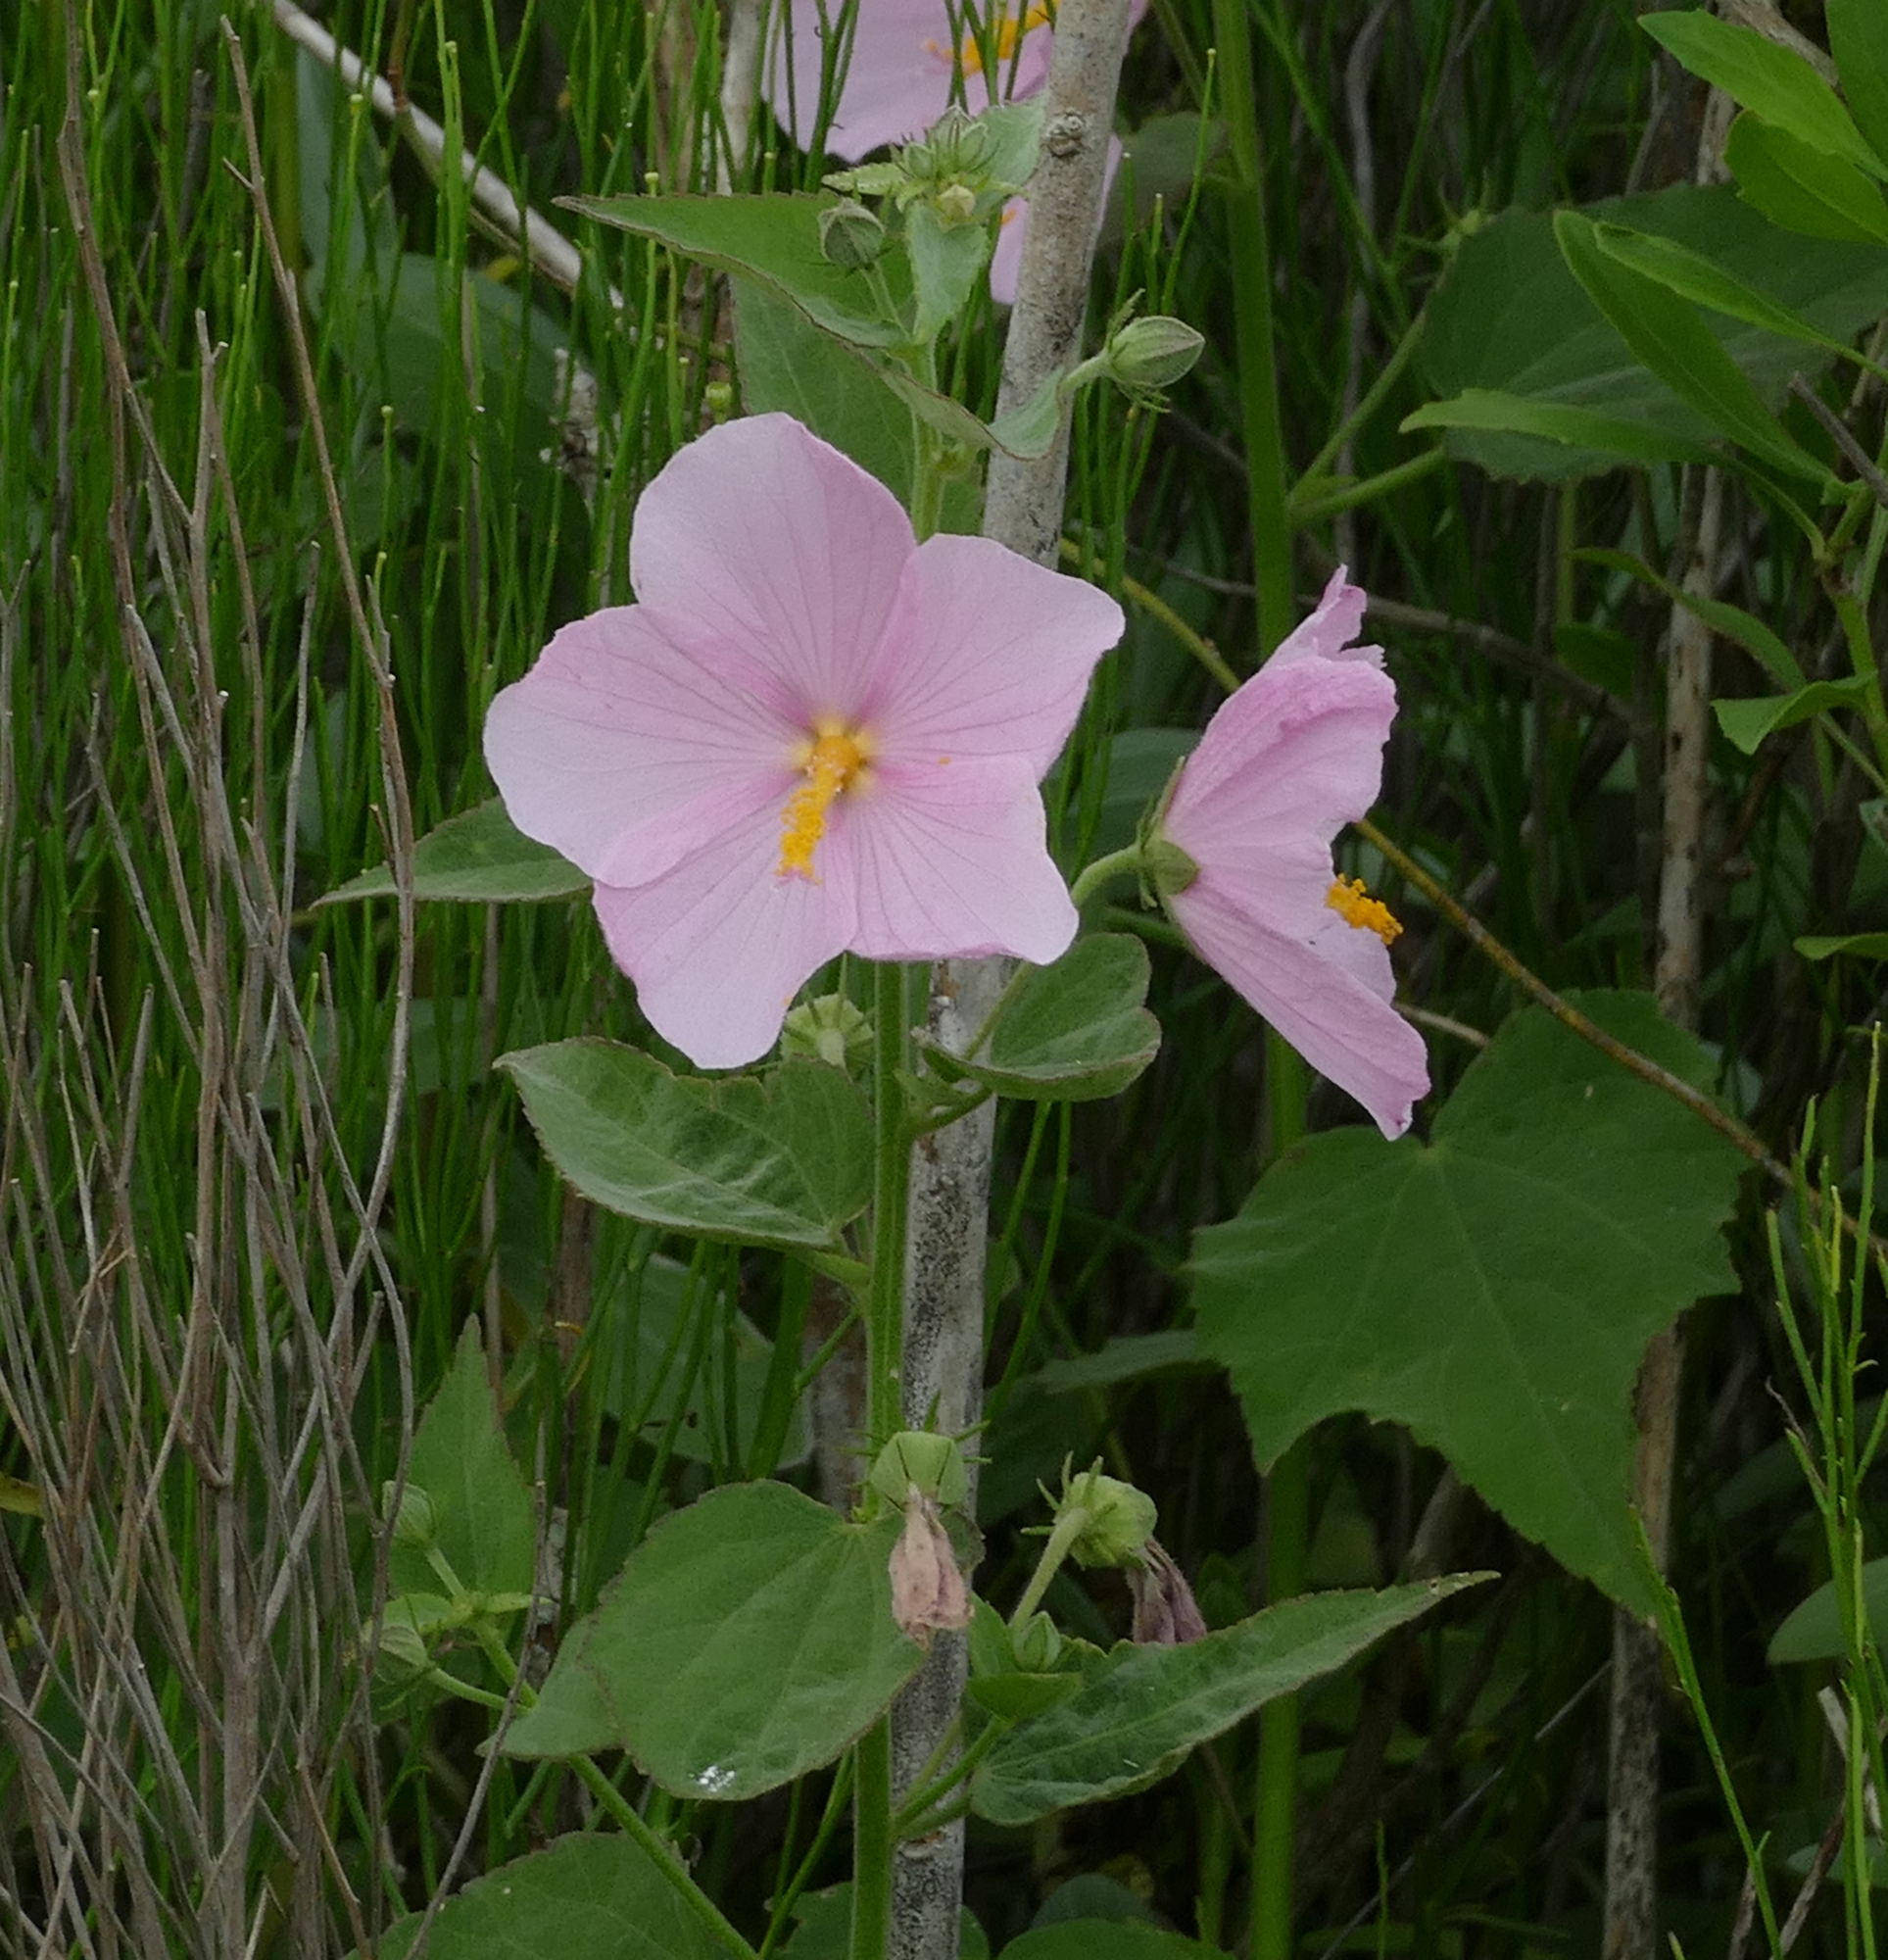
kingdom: Plantae
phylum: Tracheophyta
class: Magnoliopsida
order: Malvales
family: Malvaceae
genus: Kosteletzkya
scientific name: Kosteletzkya pentacarpos
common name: Virginia saltmarsh mallow
